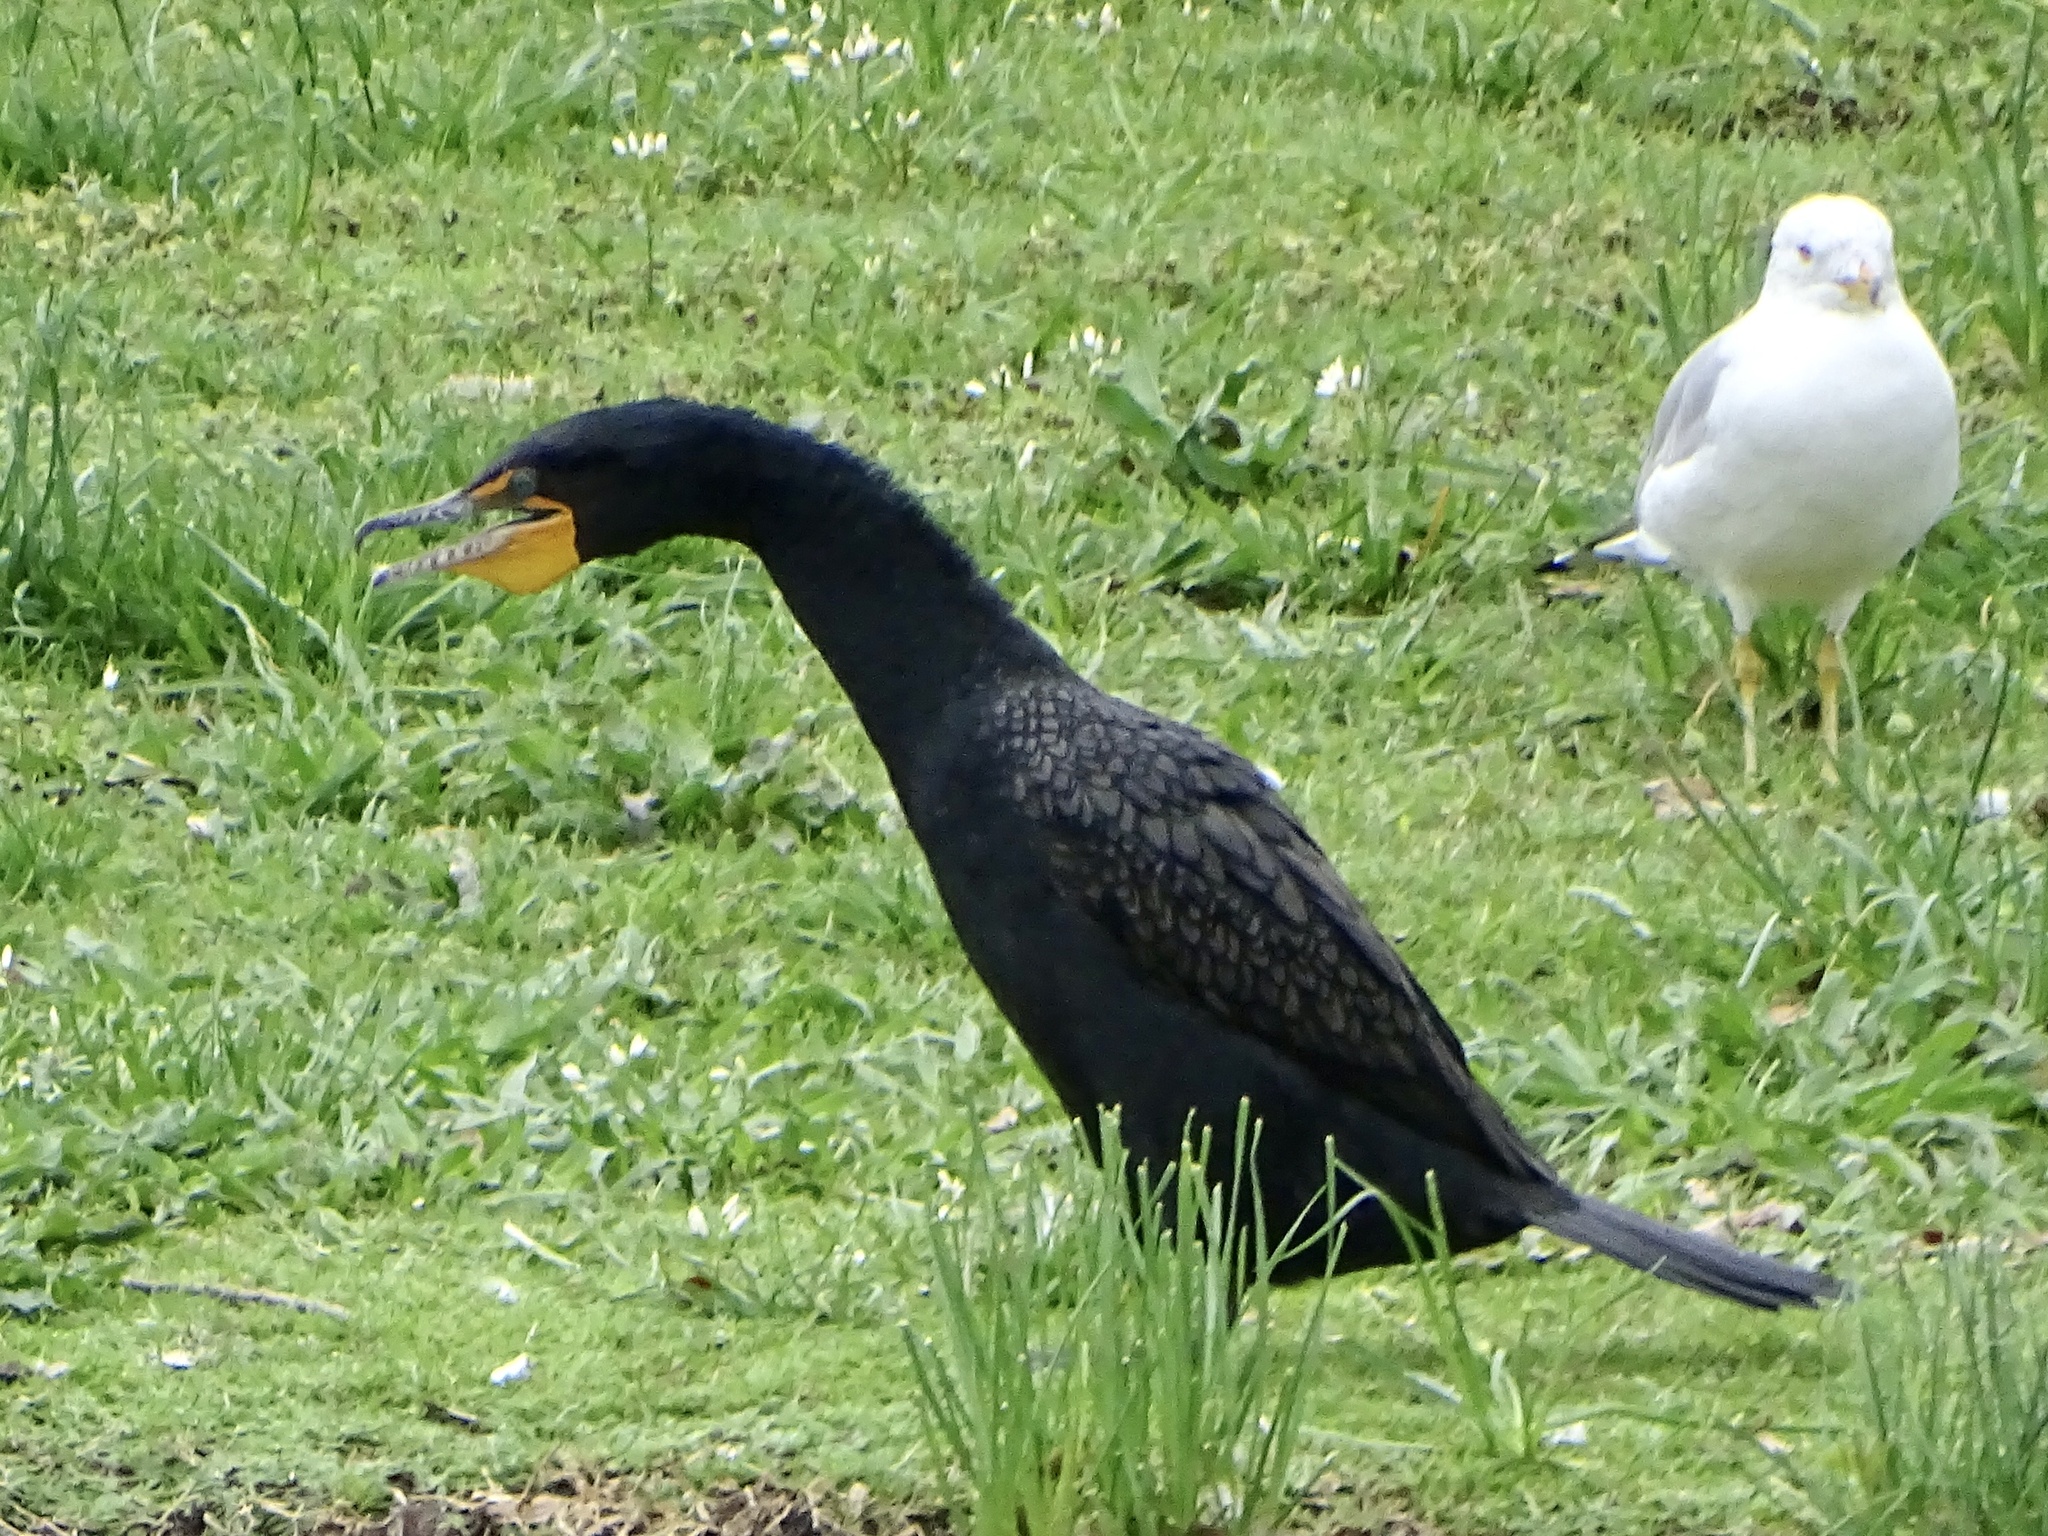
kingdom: Animalia
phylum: Chordata
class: Aves
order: Suliformes
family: Phalacrocoracidae
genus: Phalacrocorax
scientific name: Phalacrocorax auritus
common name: Double-crested cormorant
